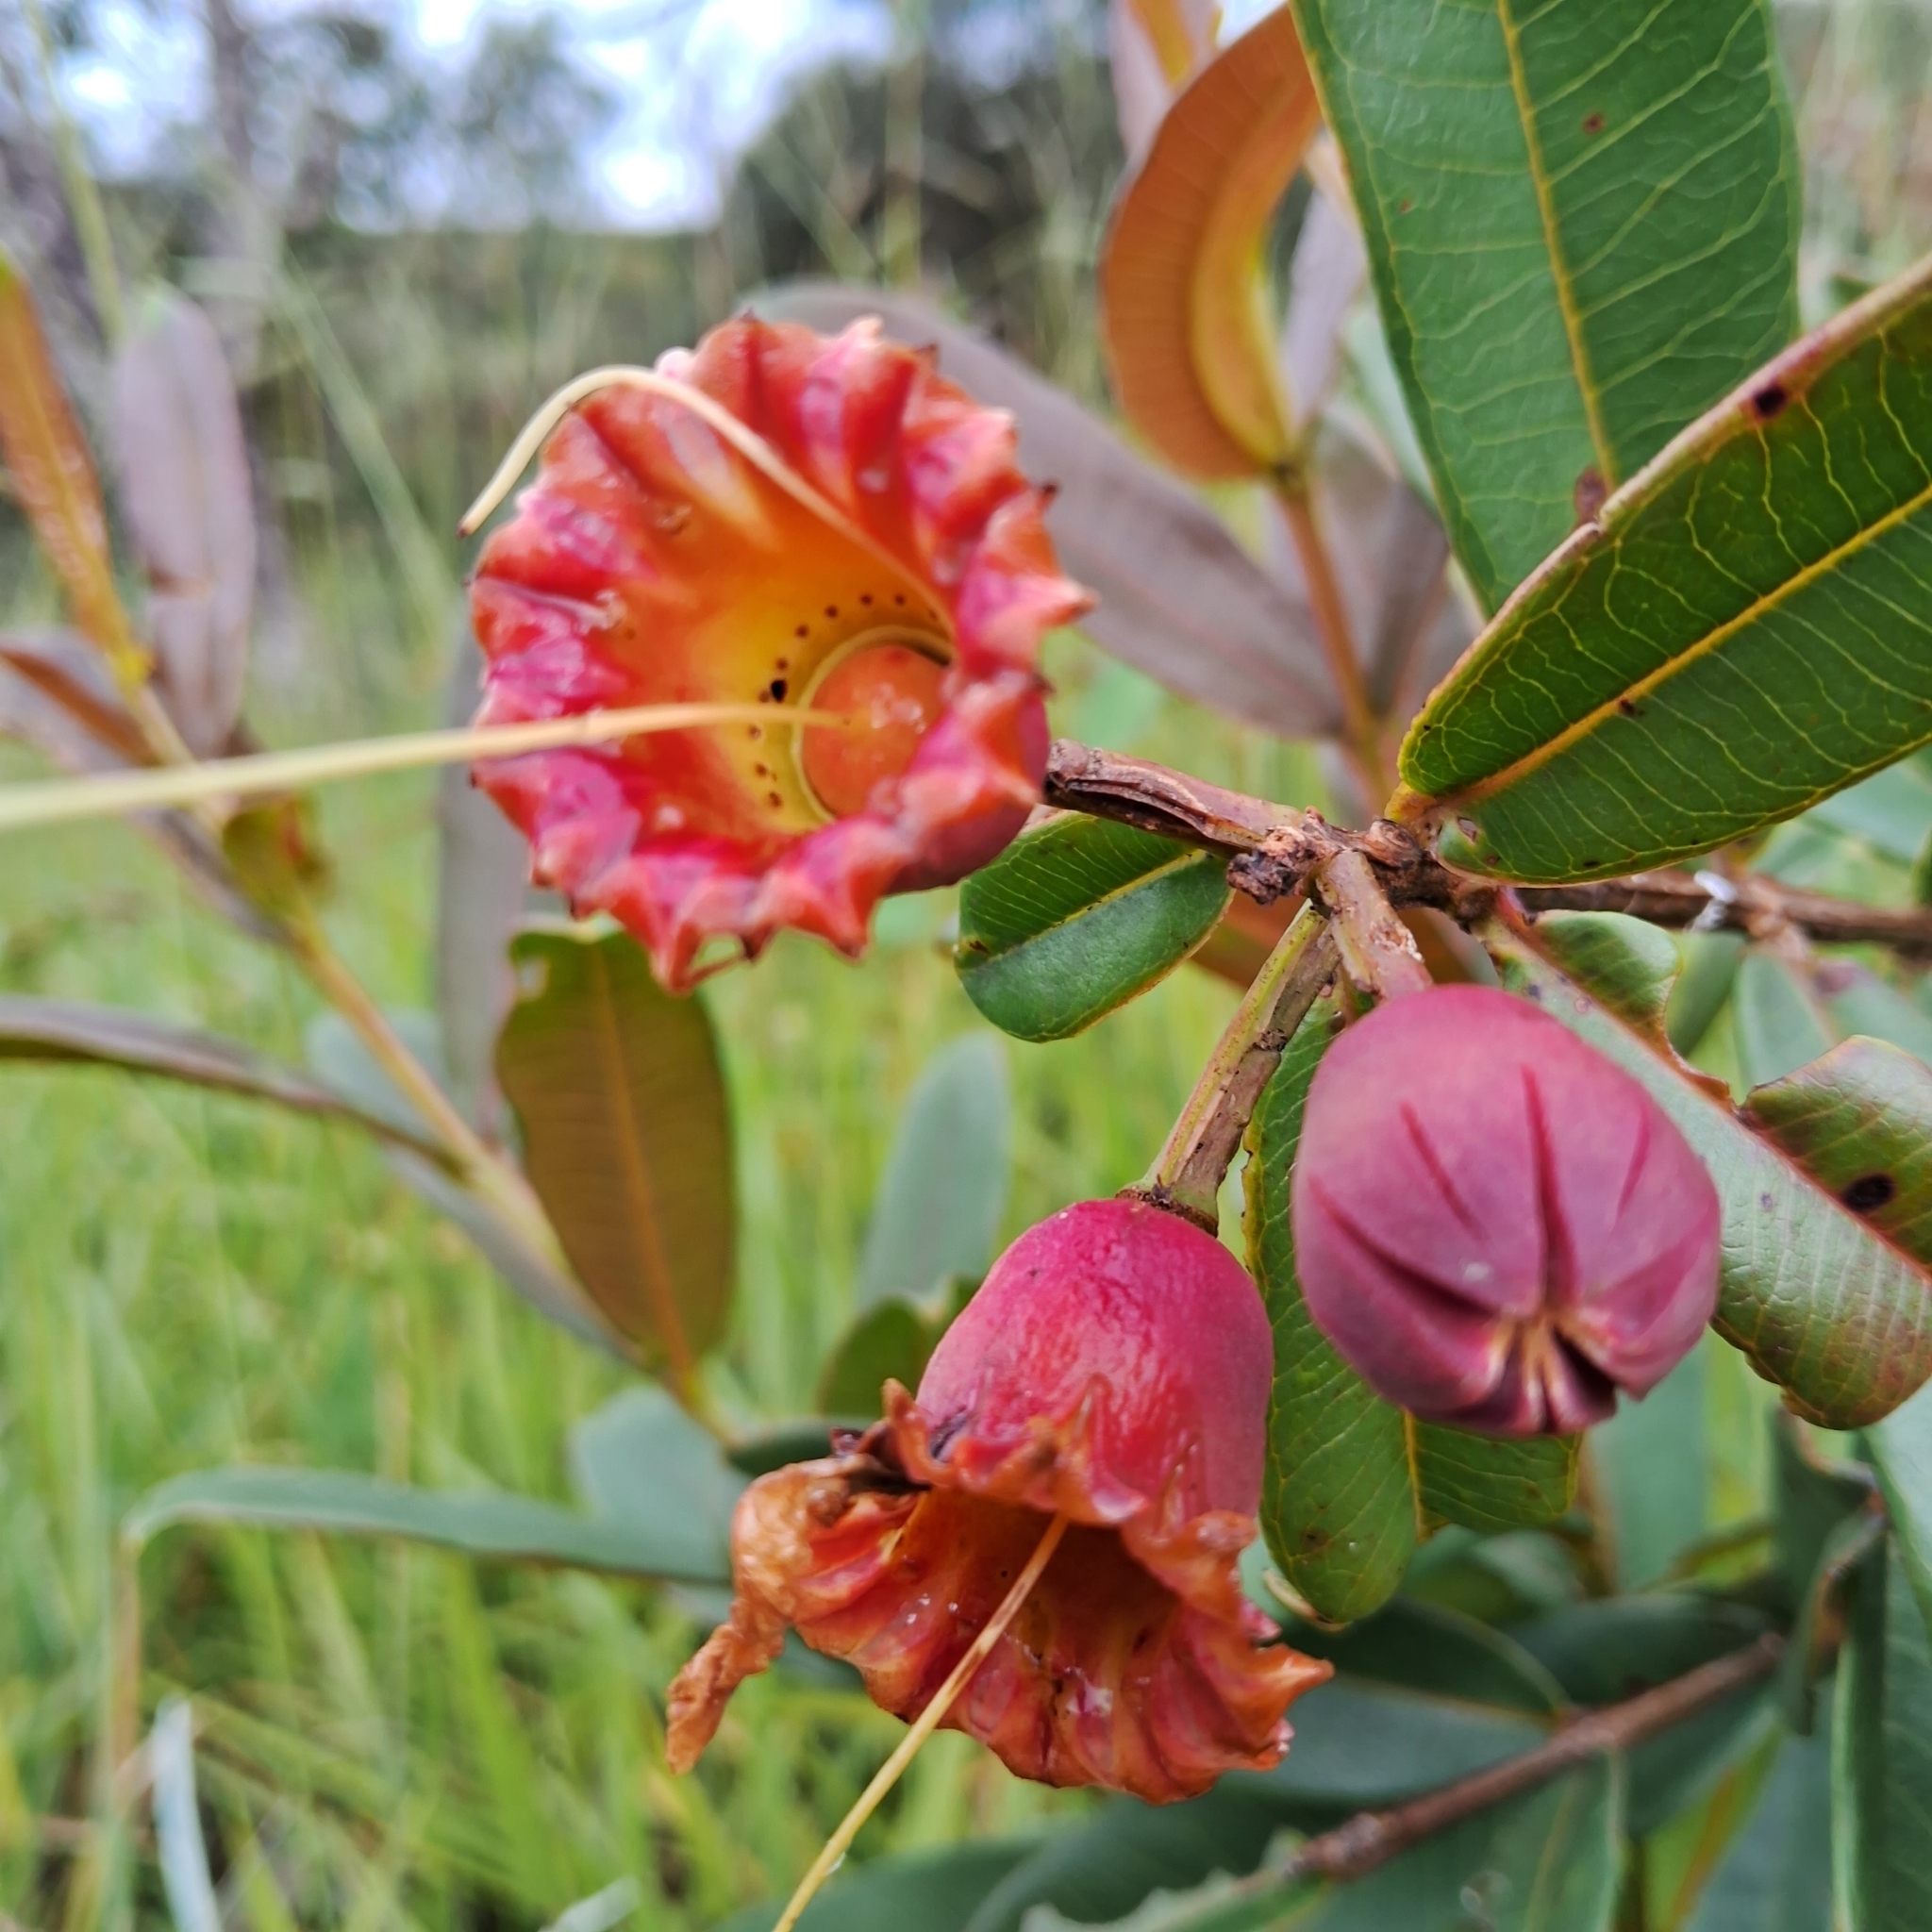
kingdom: Plantae
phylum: Tracheophyta
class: Magnoliopsida
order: Myrtales
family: Lythraceae
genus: Lafoensia
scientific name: Lafoensia pacari
